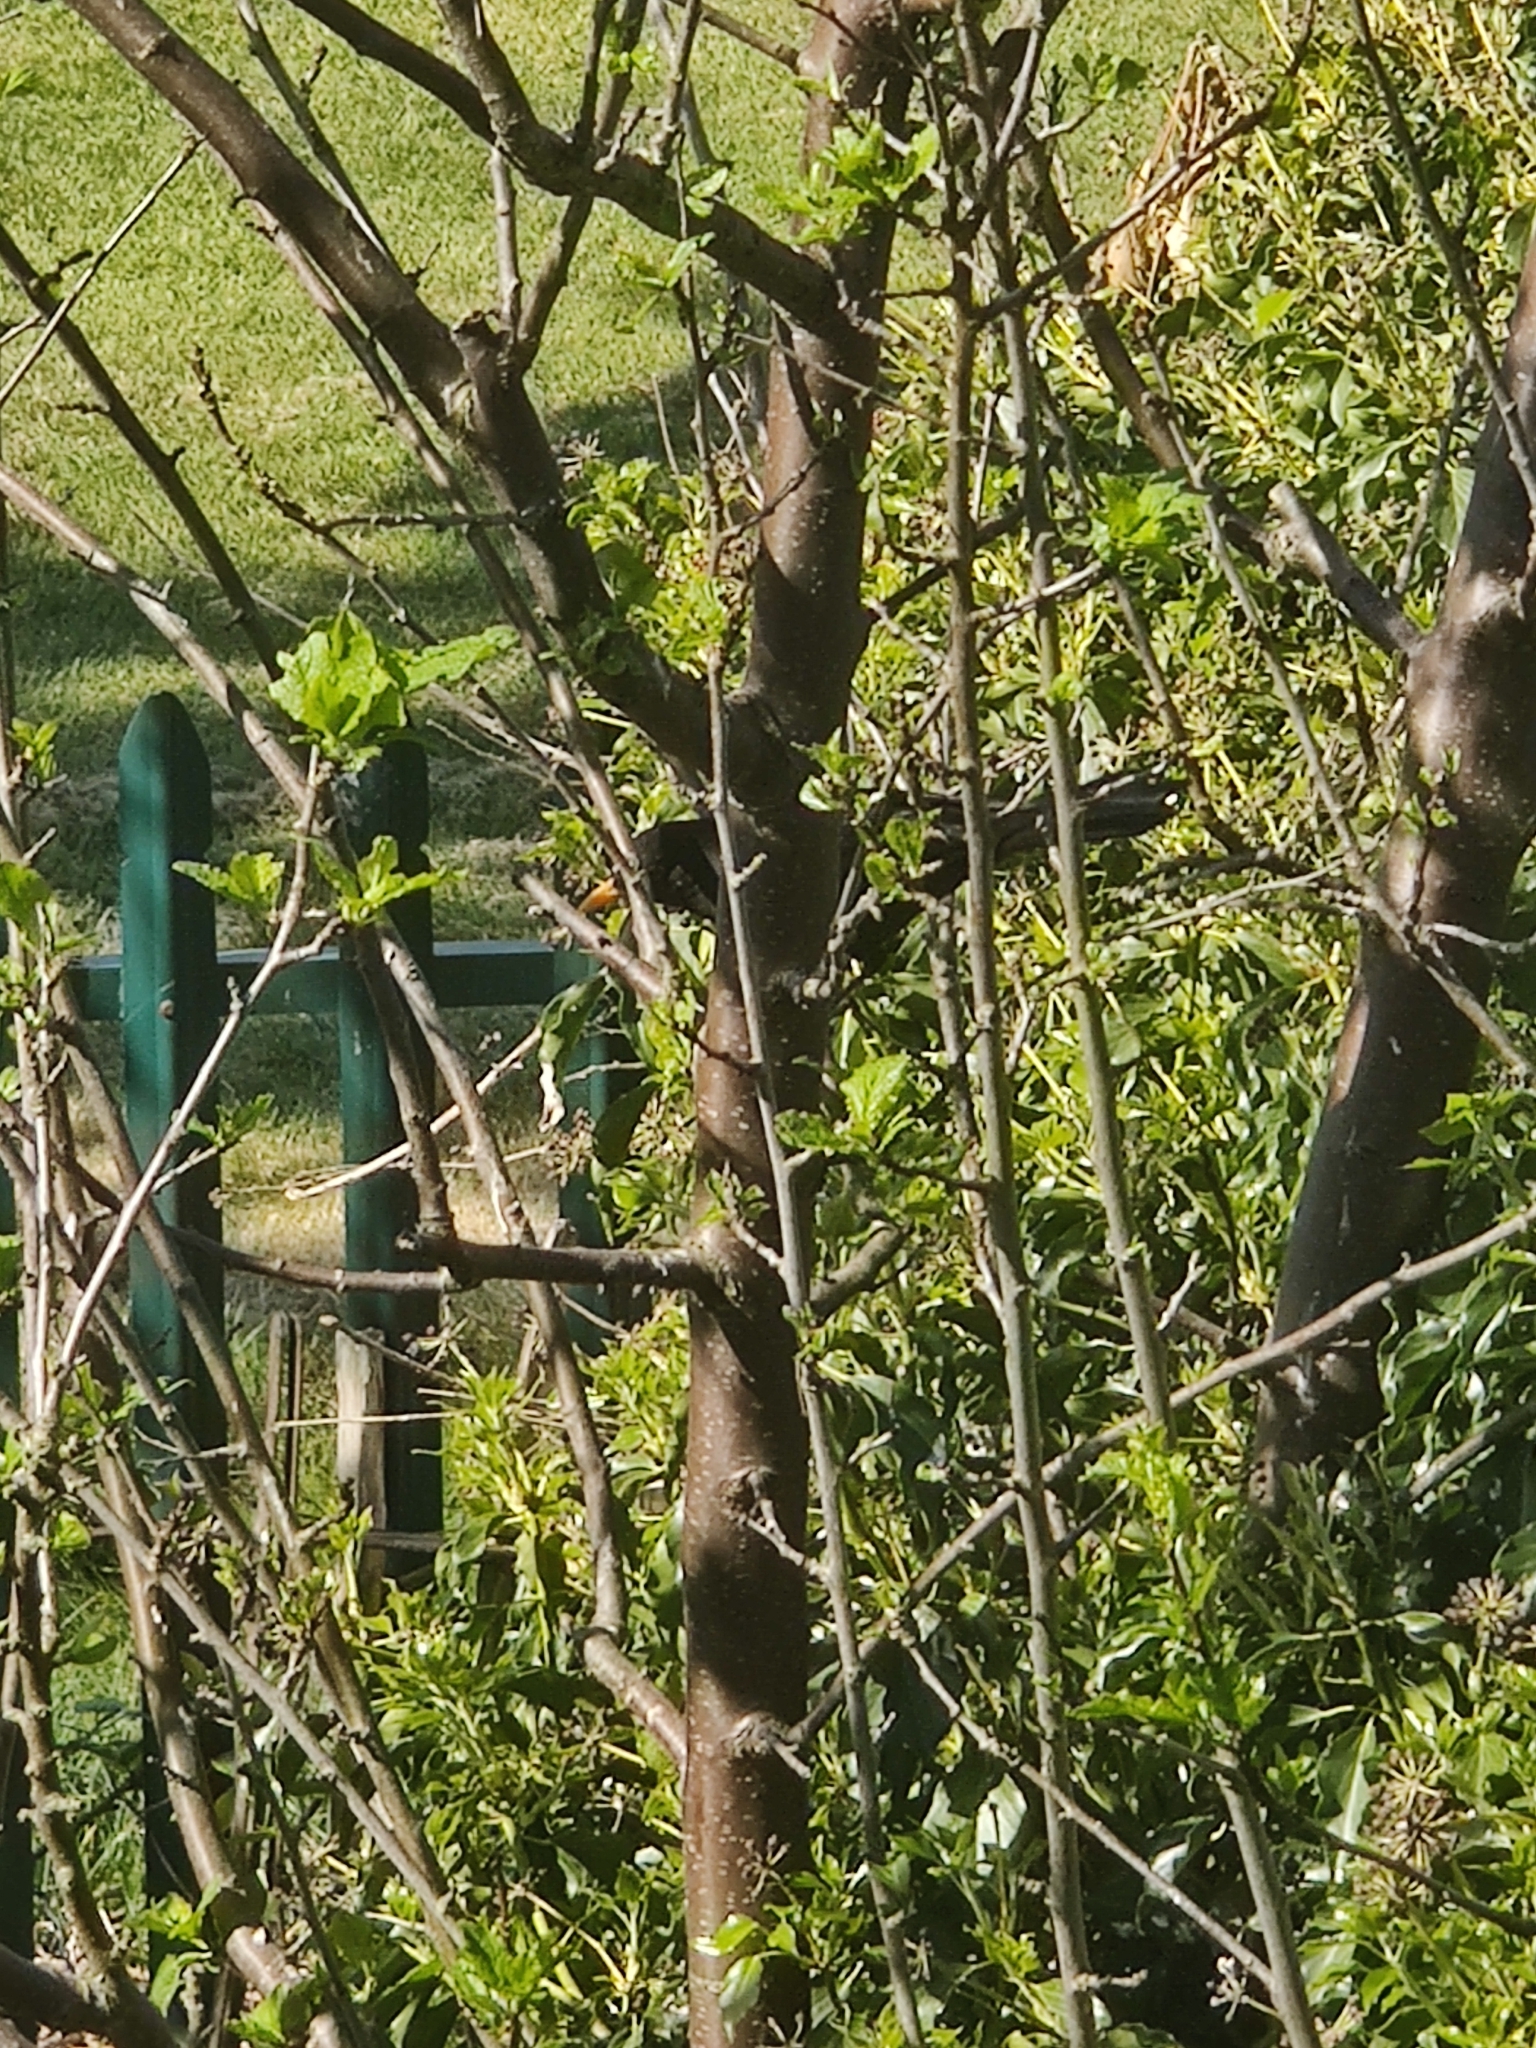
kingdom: Animalia
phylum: Chordata
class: Aves
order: Passeriformes
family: Turdidae
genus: Turdus
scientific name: Turdus merula
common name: Common blackbird
